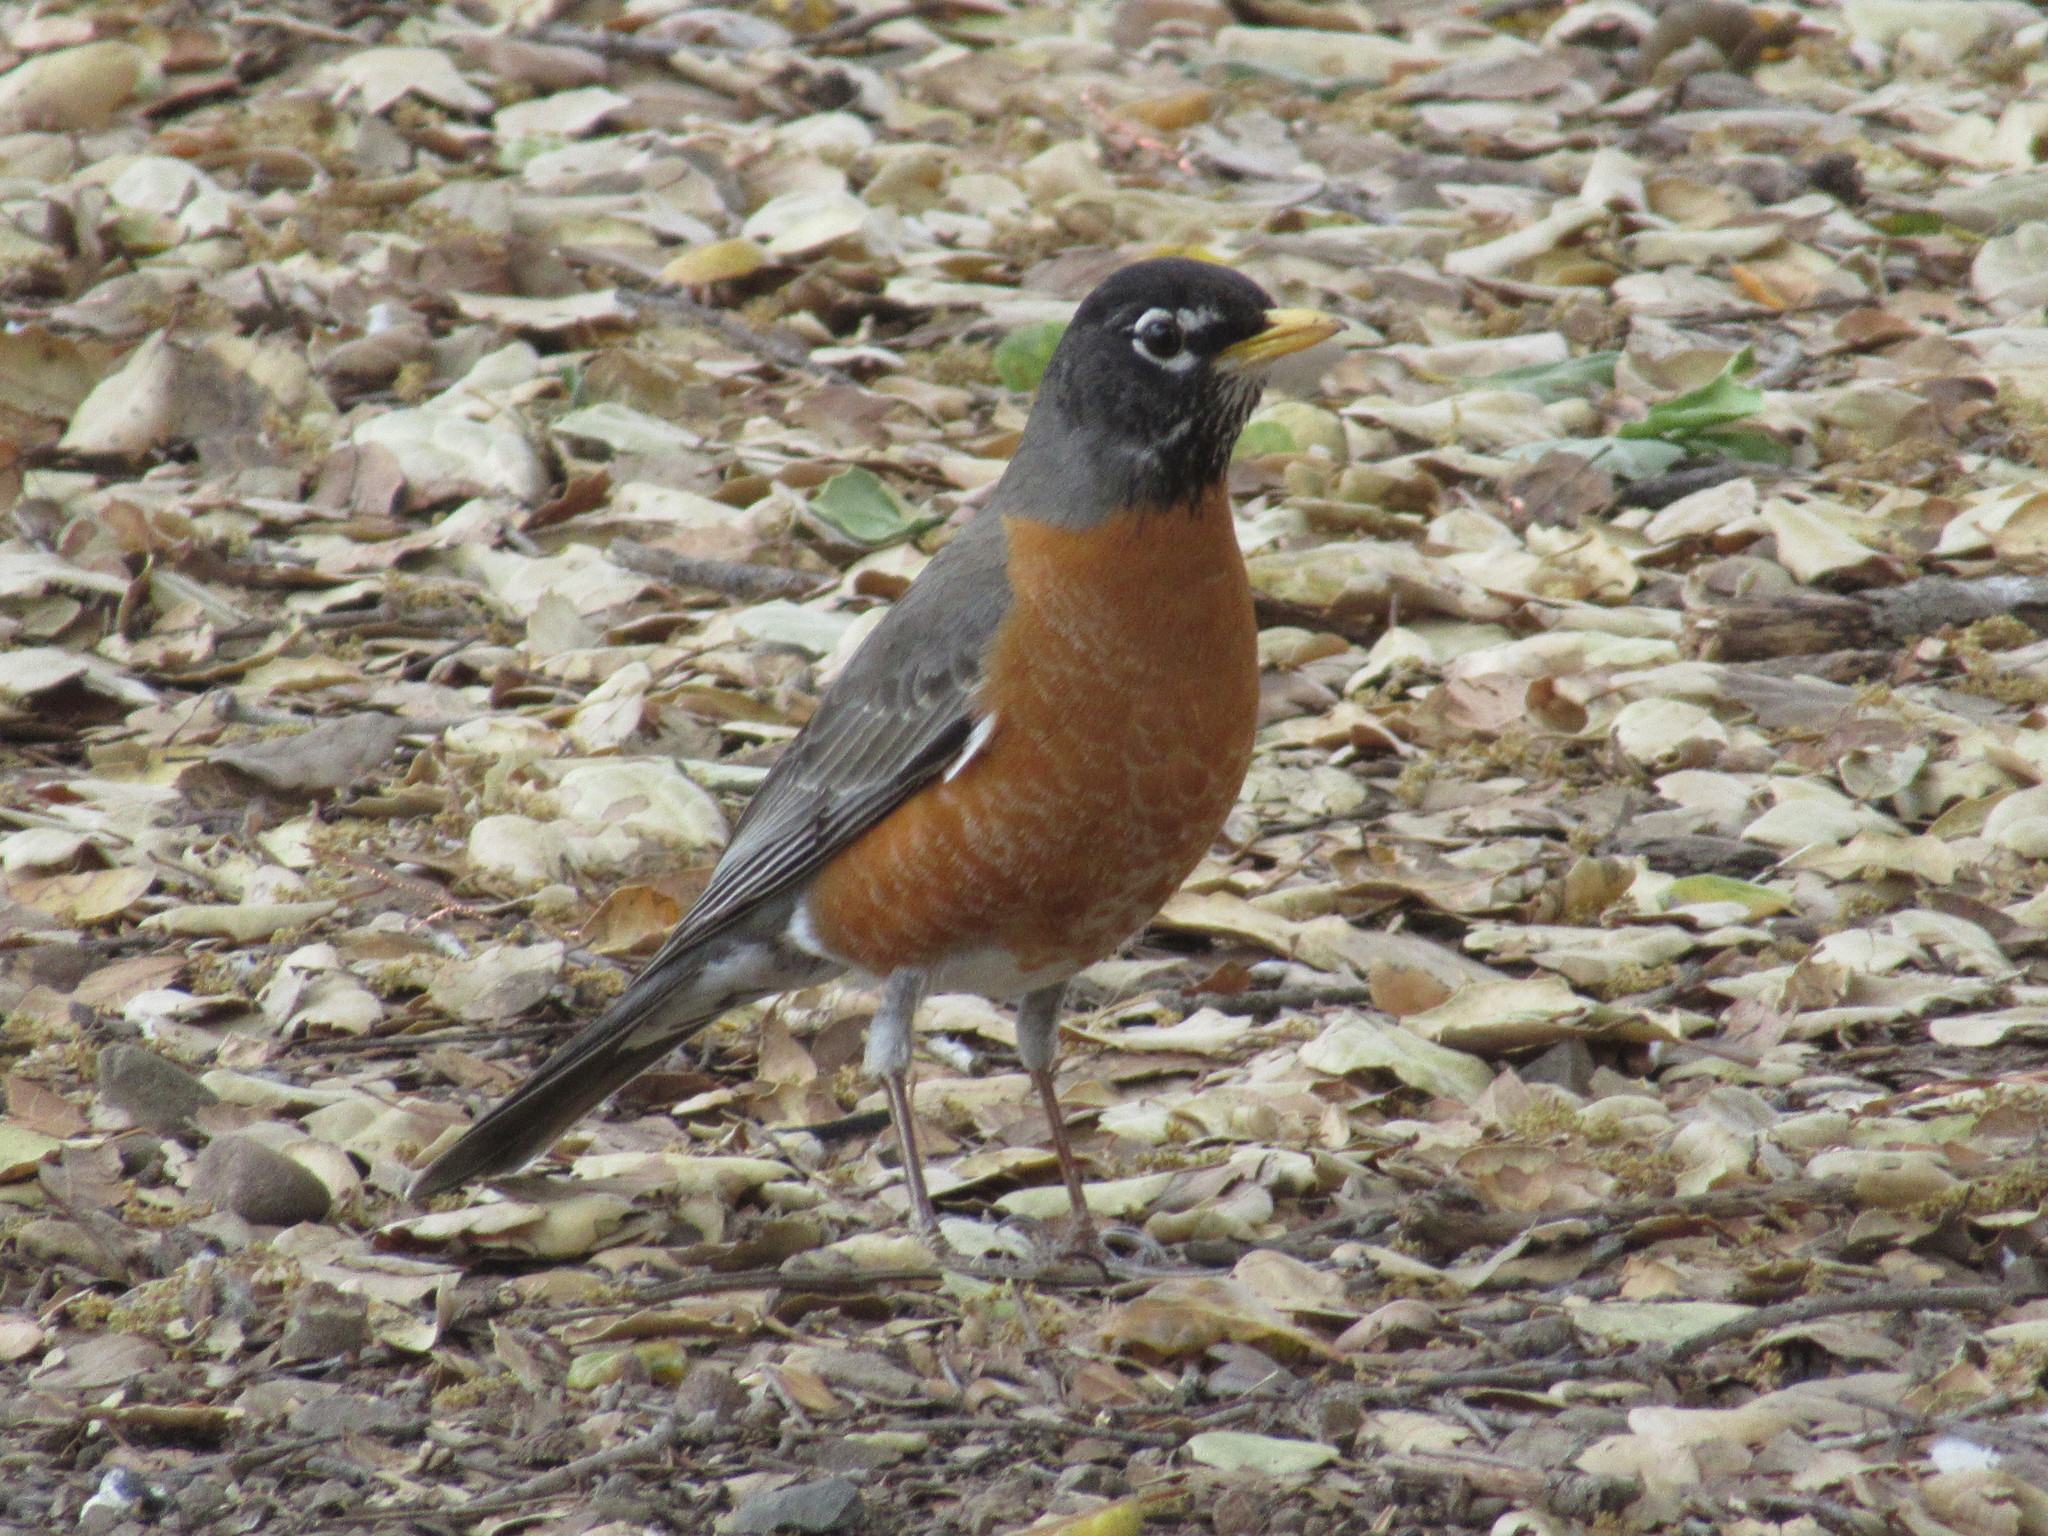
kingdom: Animalia
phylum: Chordata
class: Aves
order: Passeriformes
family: Turdidae
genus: Turdus
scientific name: Turdus migratorius
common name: American robin
